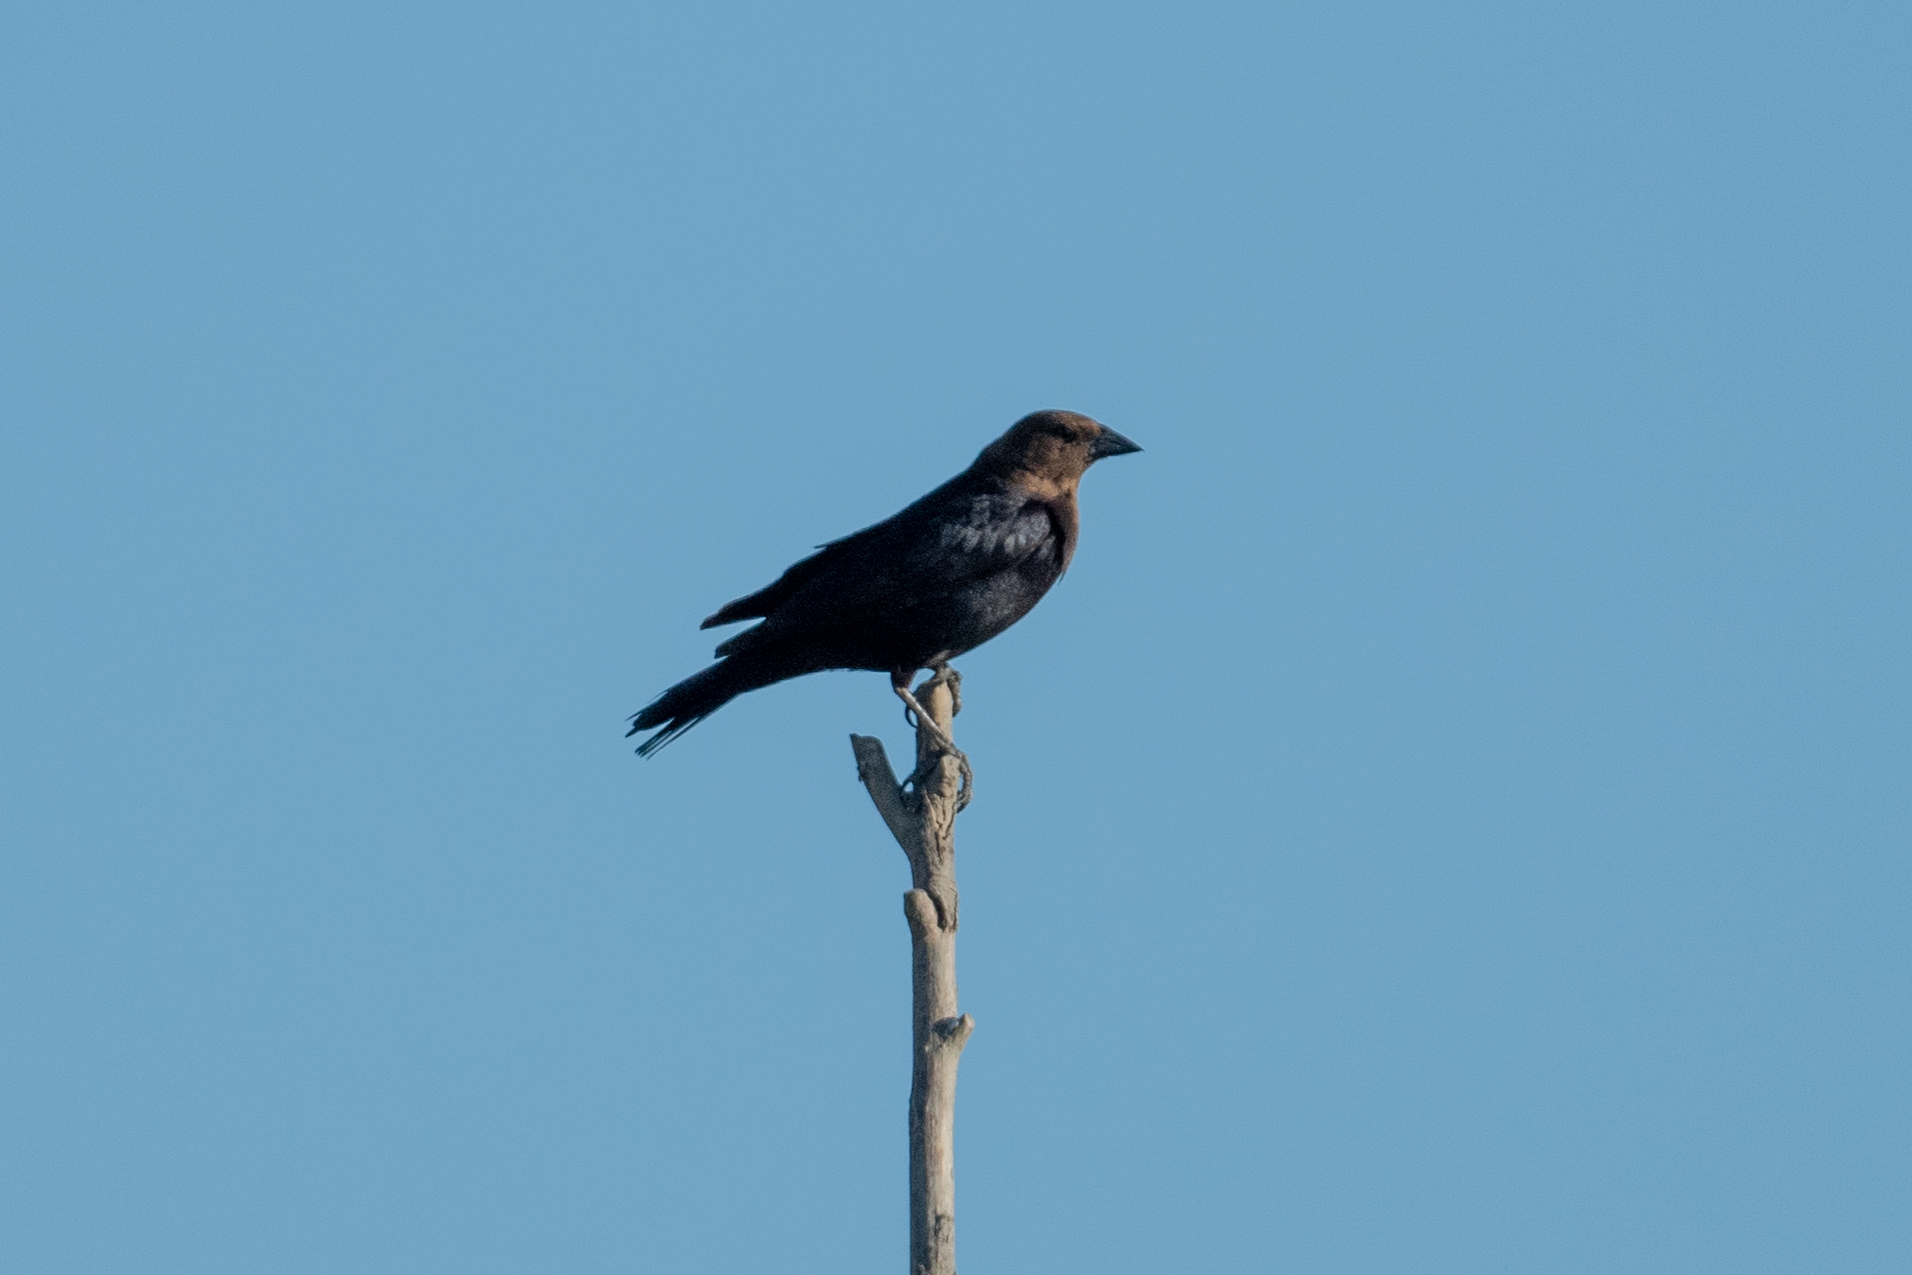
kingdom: Animalia
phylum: Chordata
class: Aves
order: Passeriformes
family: Icteridae
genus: Molothrus
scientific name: Molothrus ater
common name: Brown-headed cowbird
